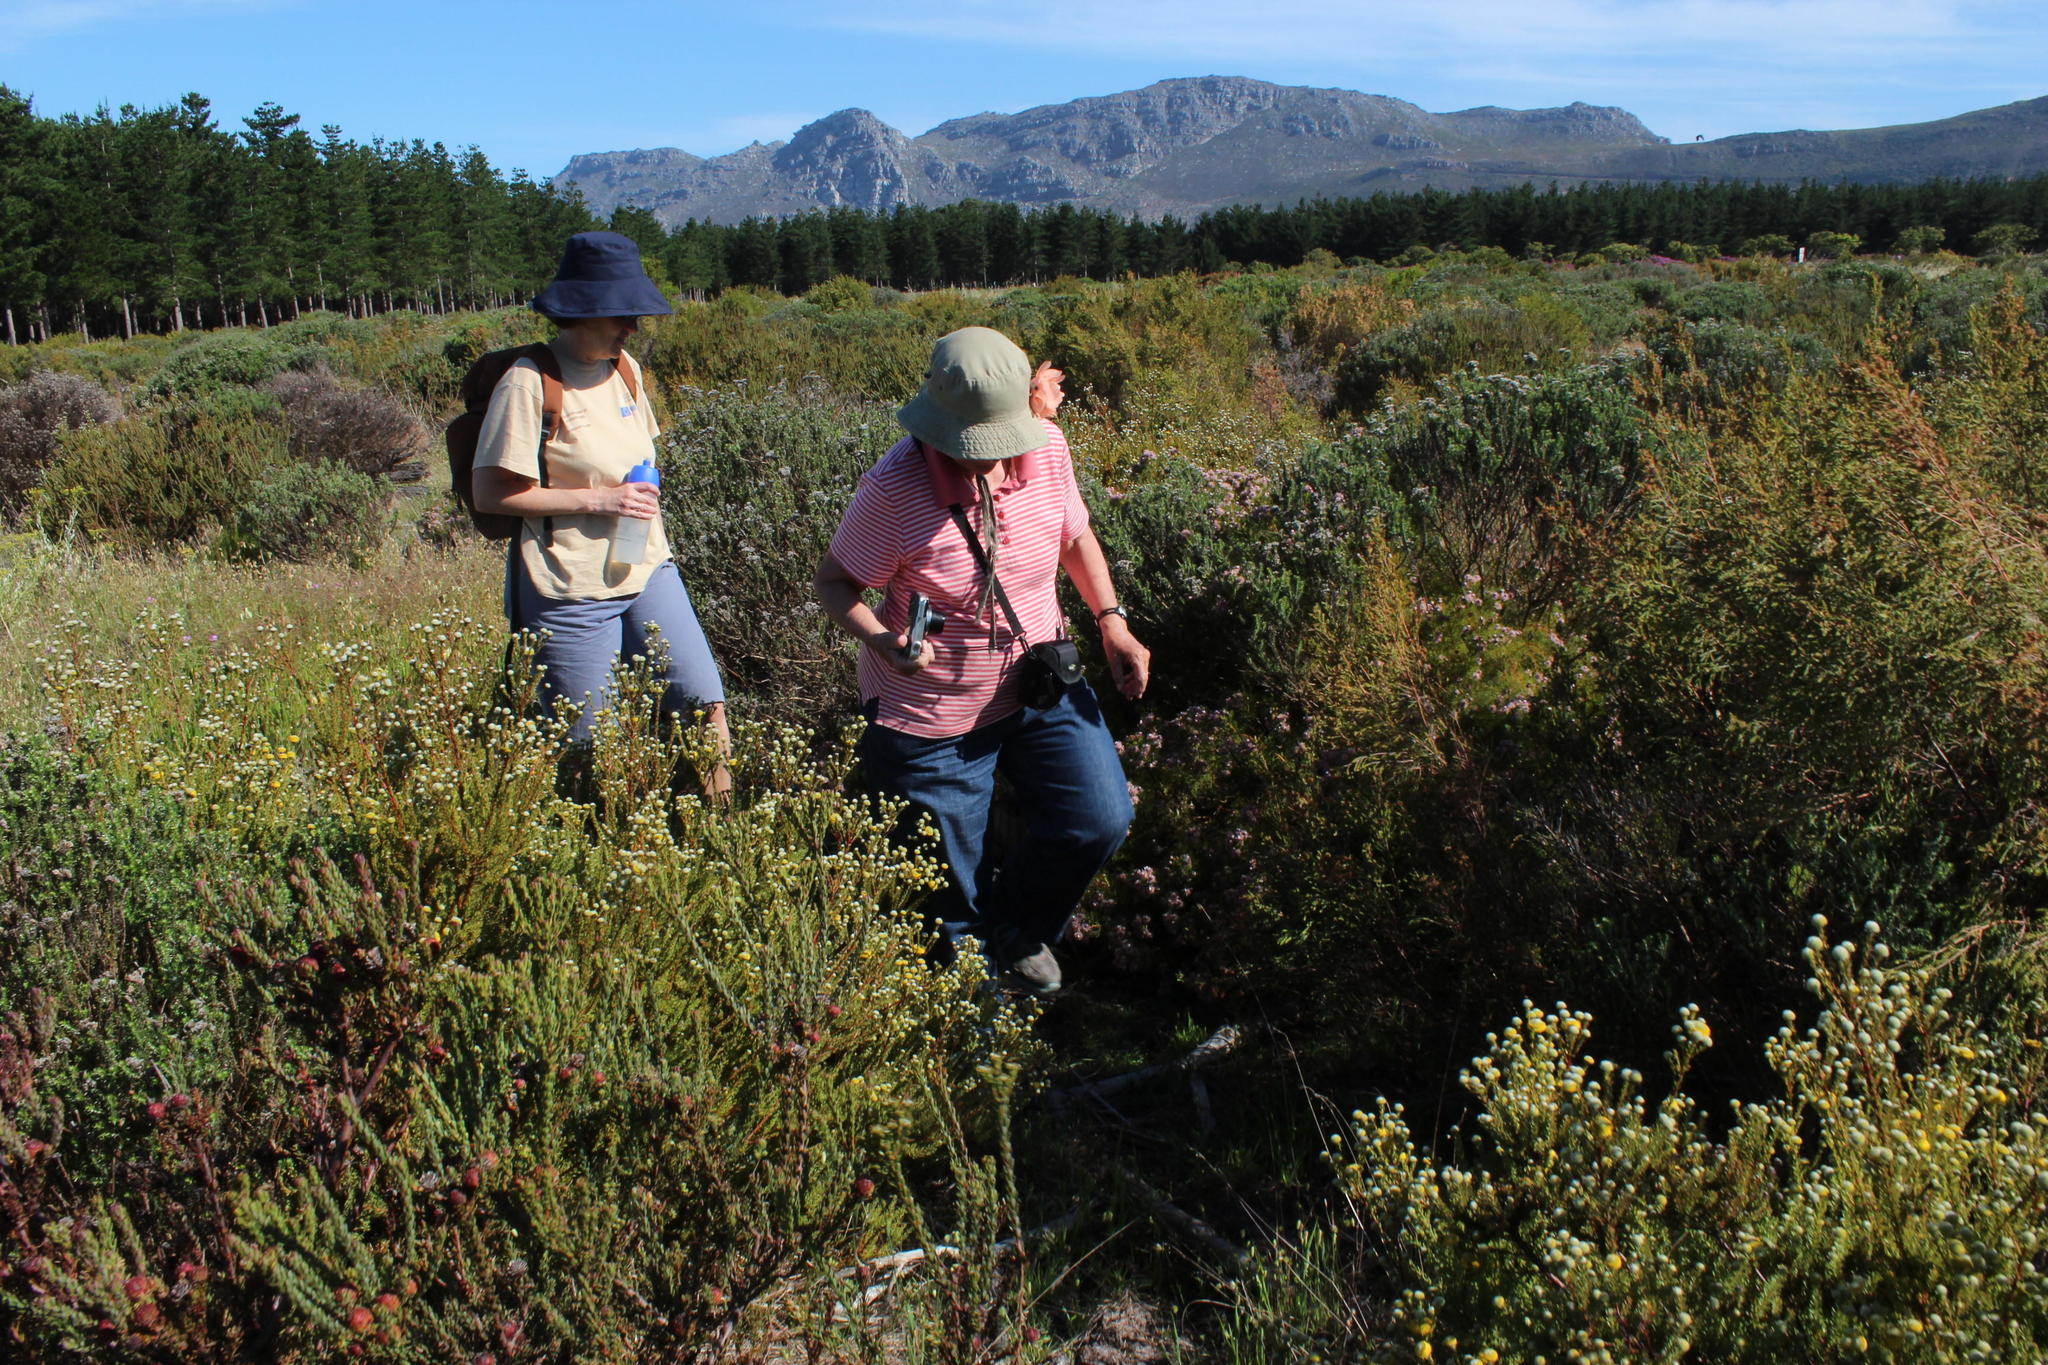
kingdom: Plantae
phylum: Tracheophyta
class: Magnoliopsida
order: Proteales
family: Proteaceae
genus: Leucadendron
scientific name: Leucadendron levisanus
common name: Cape flats conebush
